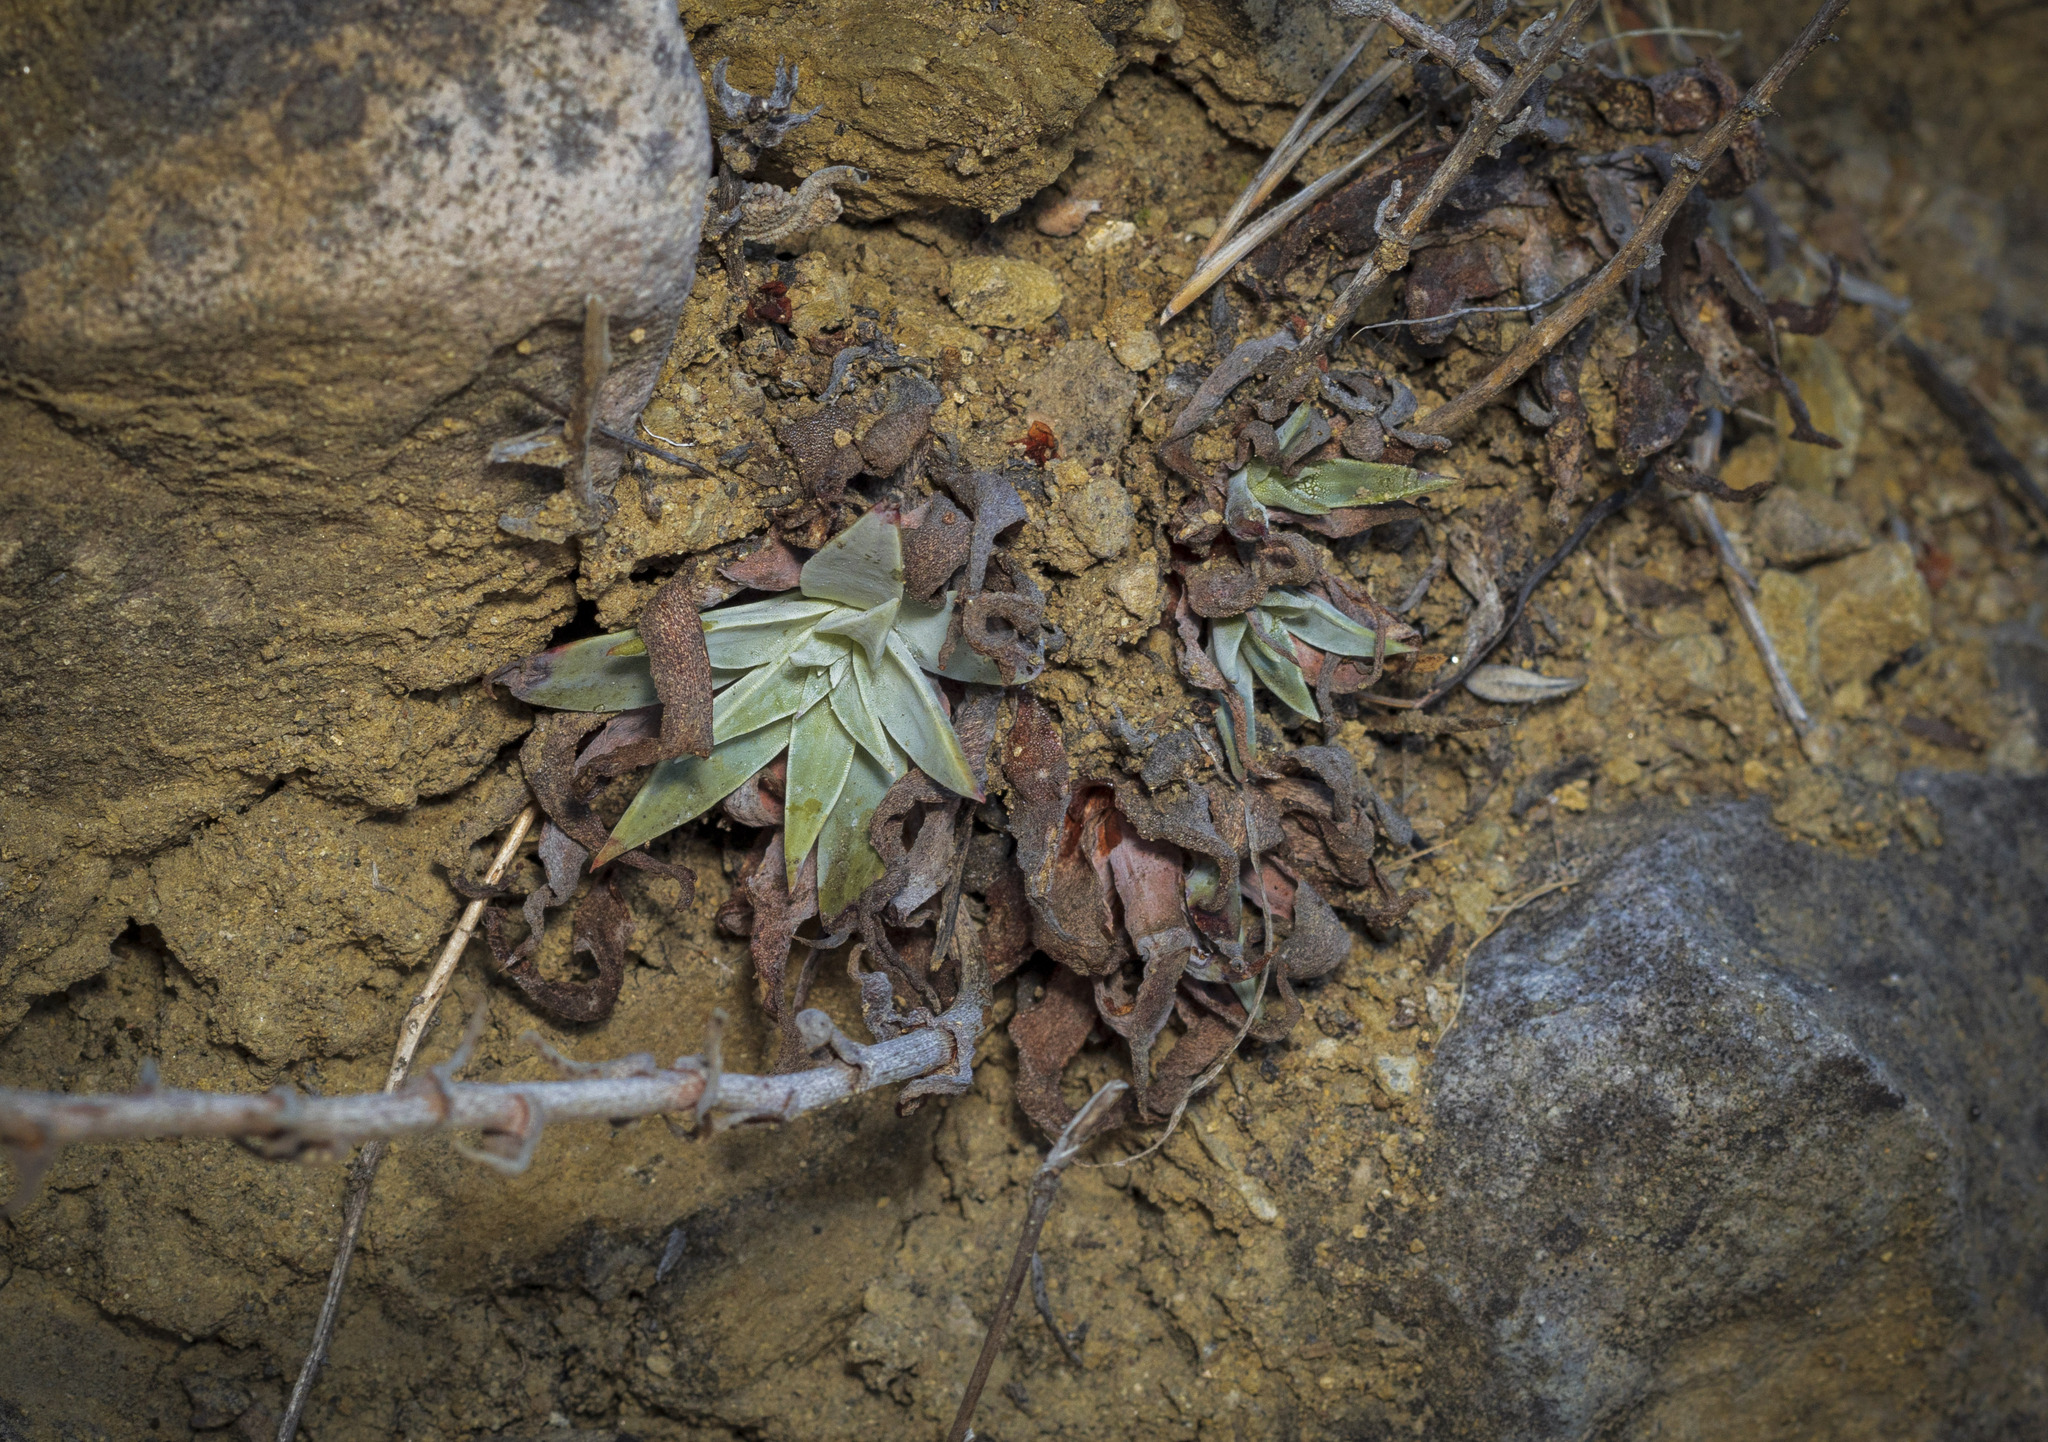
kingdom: Plantae
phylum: Tracheophyta
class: Magnoliopsida
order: Saxifragales
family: Crassulaceae
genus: Dudleya
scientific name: Dudleya cymosa
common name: Canyon dudleya
